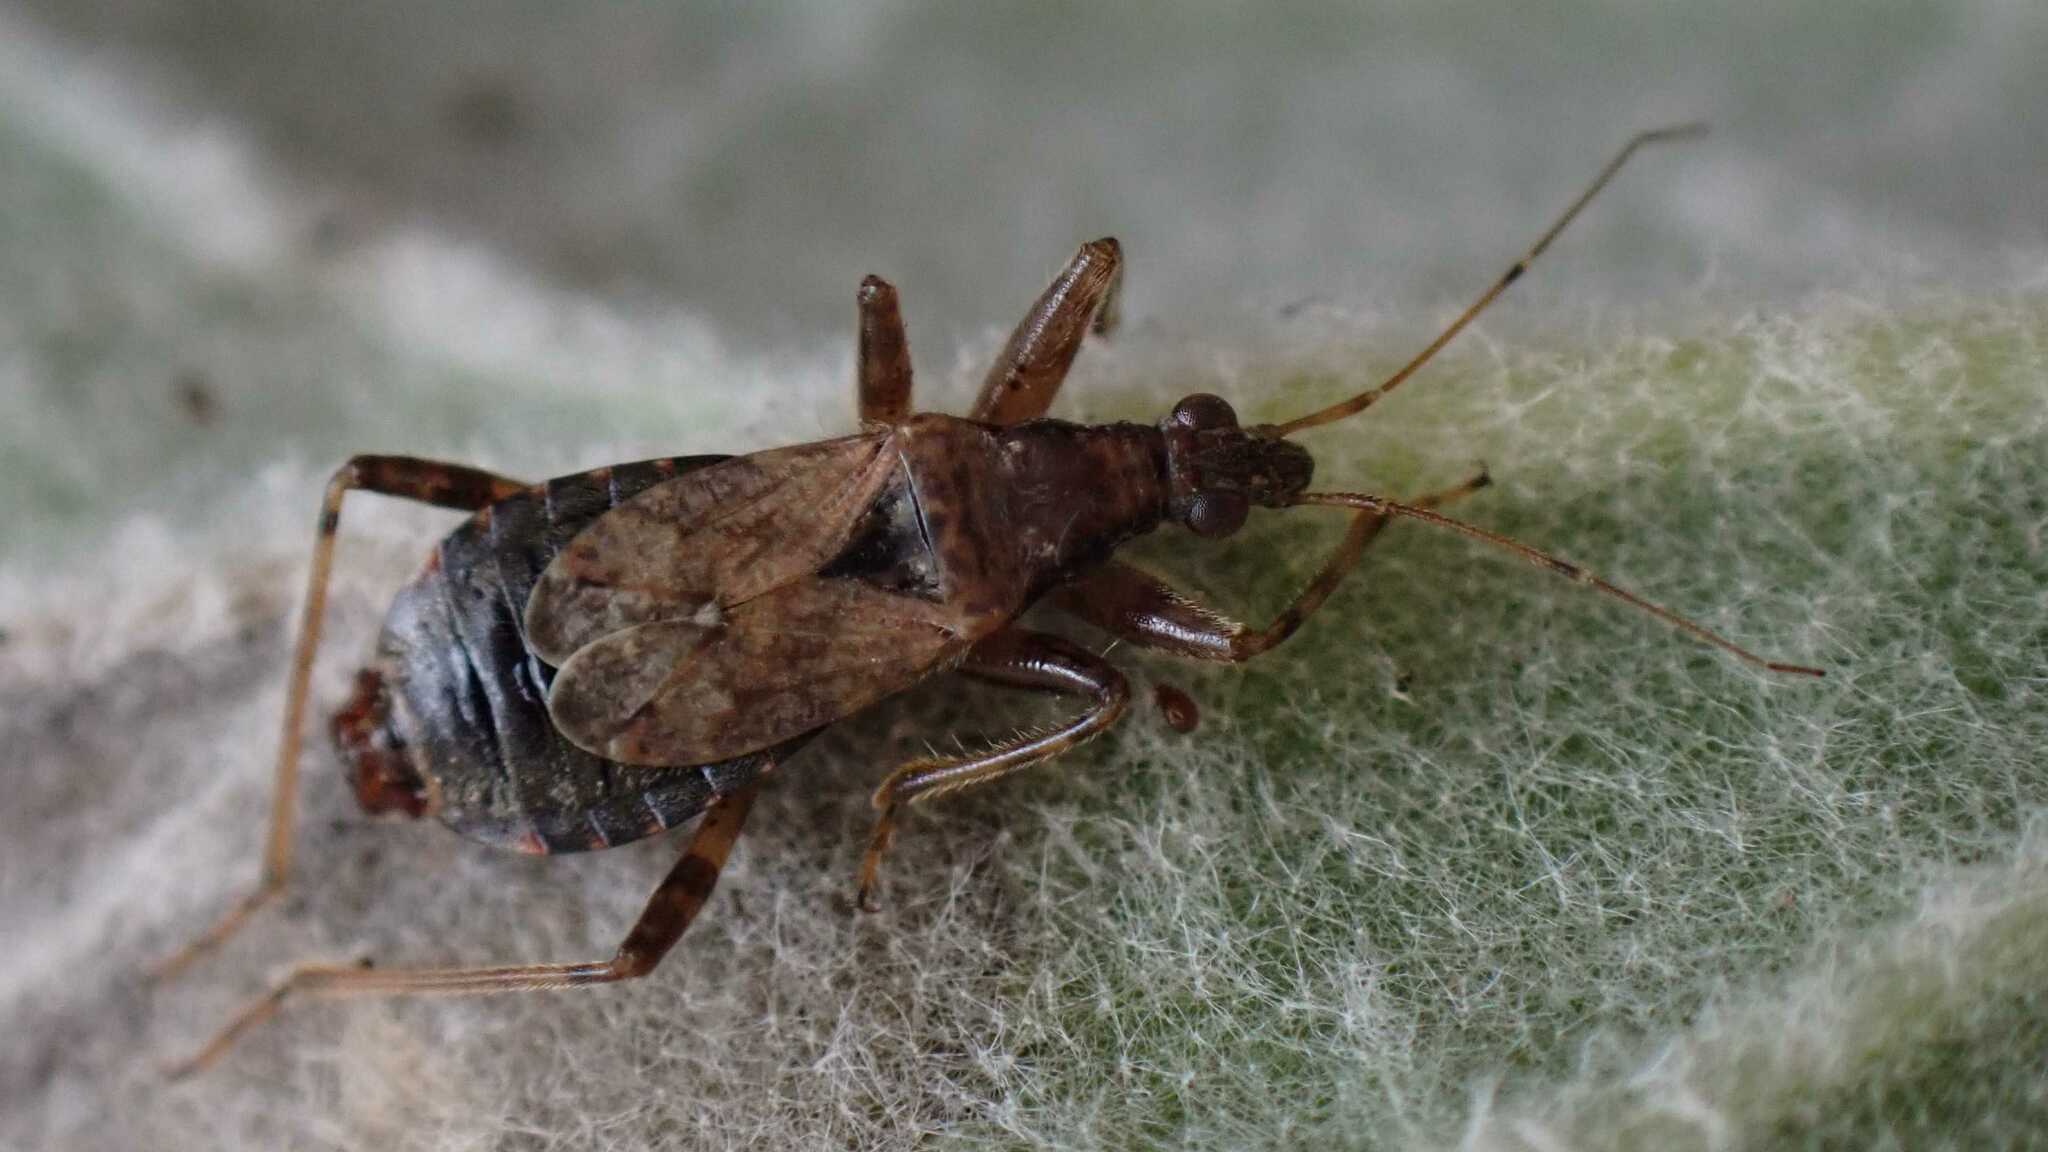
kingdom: Animalia
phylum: Arthropoda
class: Insecta
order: Hemiptera
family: Nabidae
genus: Himacerus
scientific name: Himacerus mirmicoides
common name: Ant damsel bug
